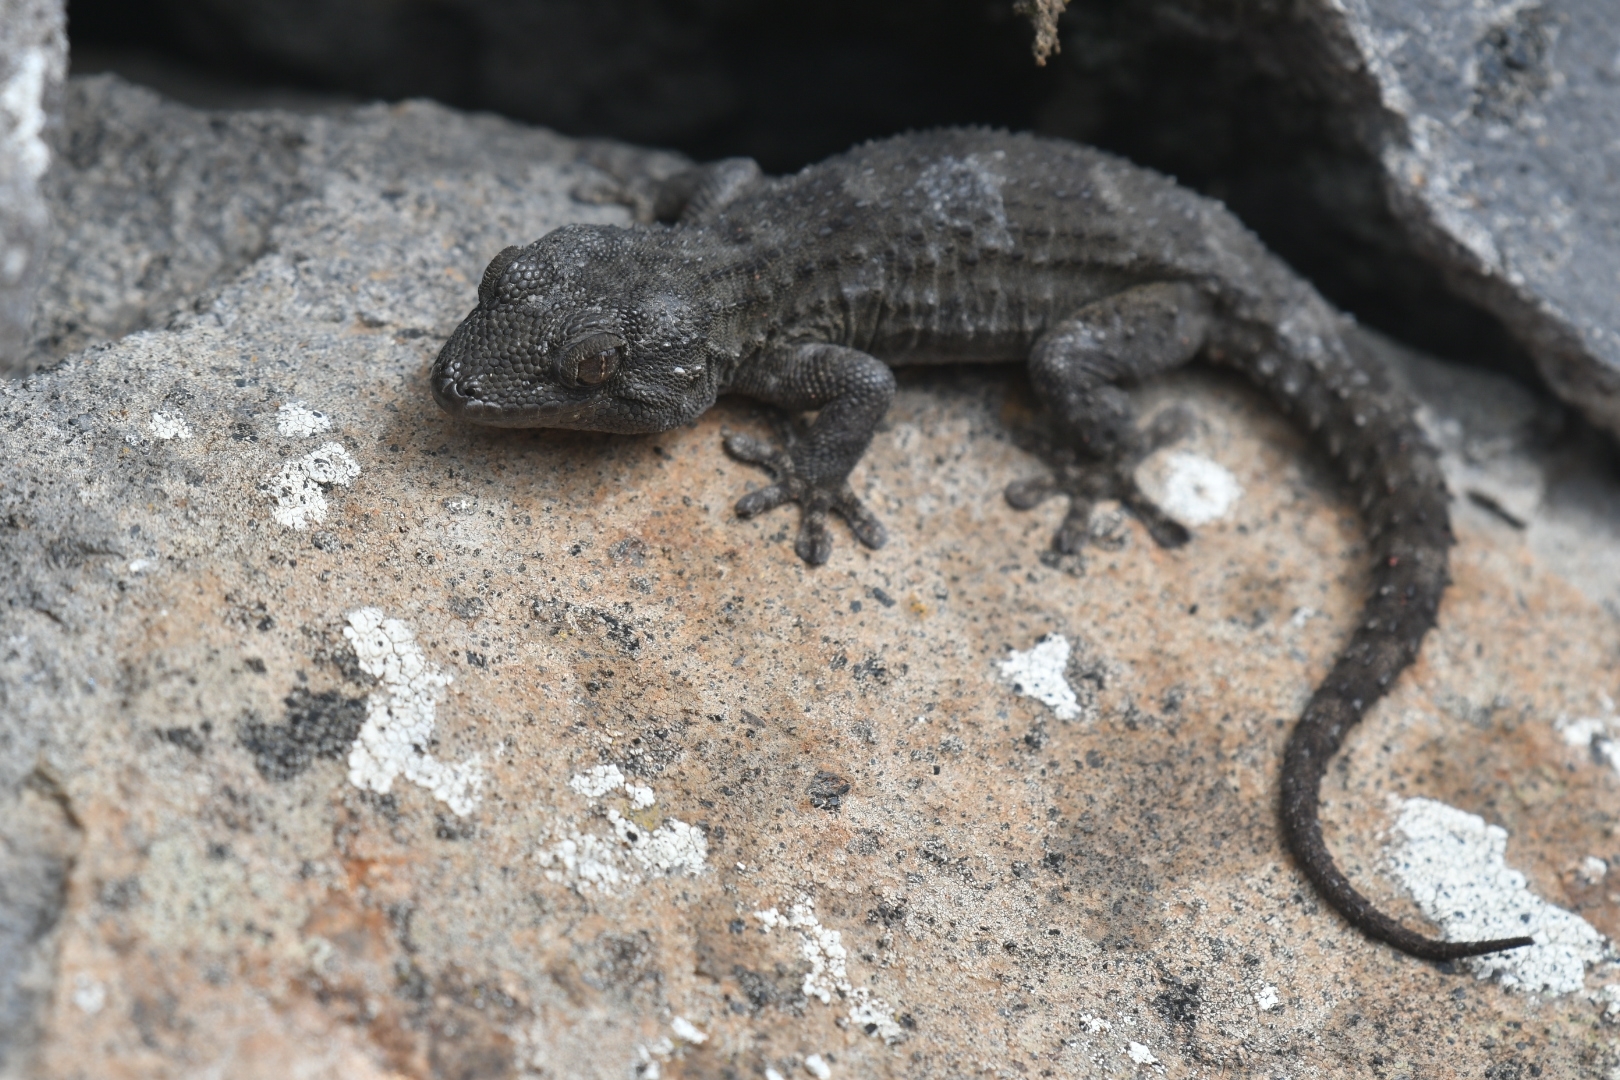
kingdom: Animalia
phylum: Chordata
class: Squamata
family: Phyllodactylidae
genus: Tarentola
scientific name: Tarentola delalandii
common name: Tenerife wall gecko
